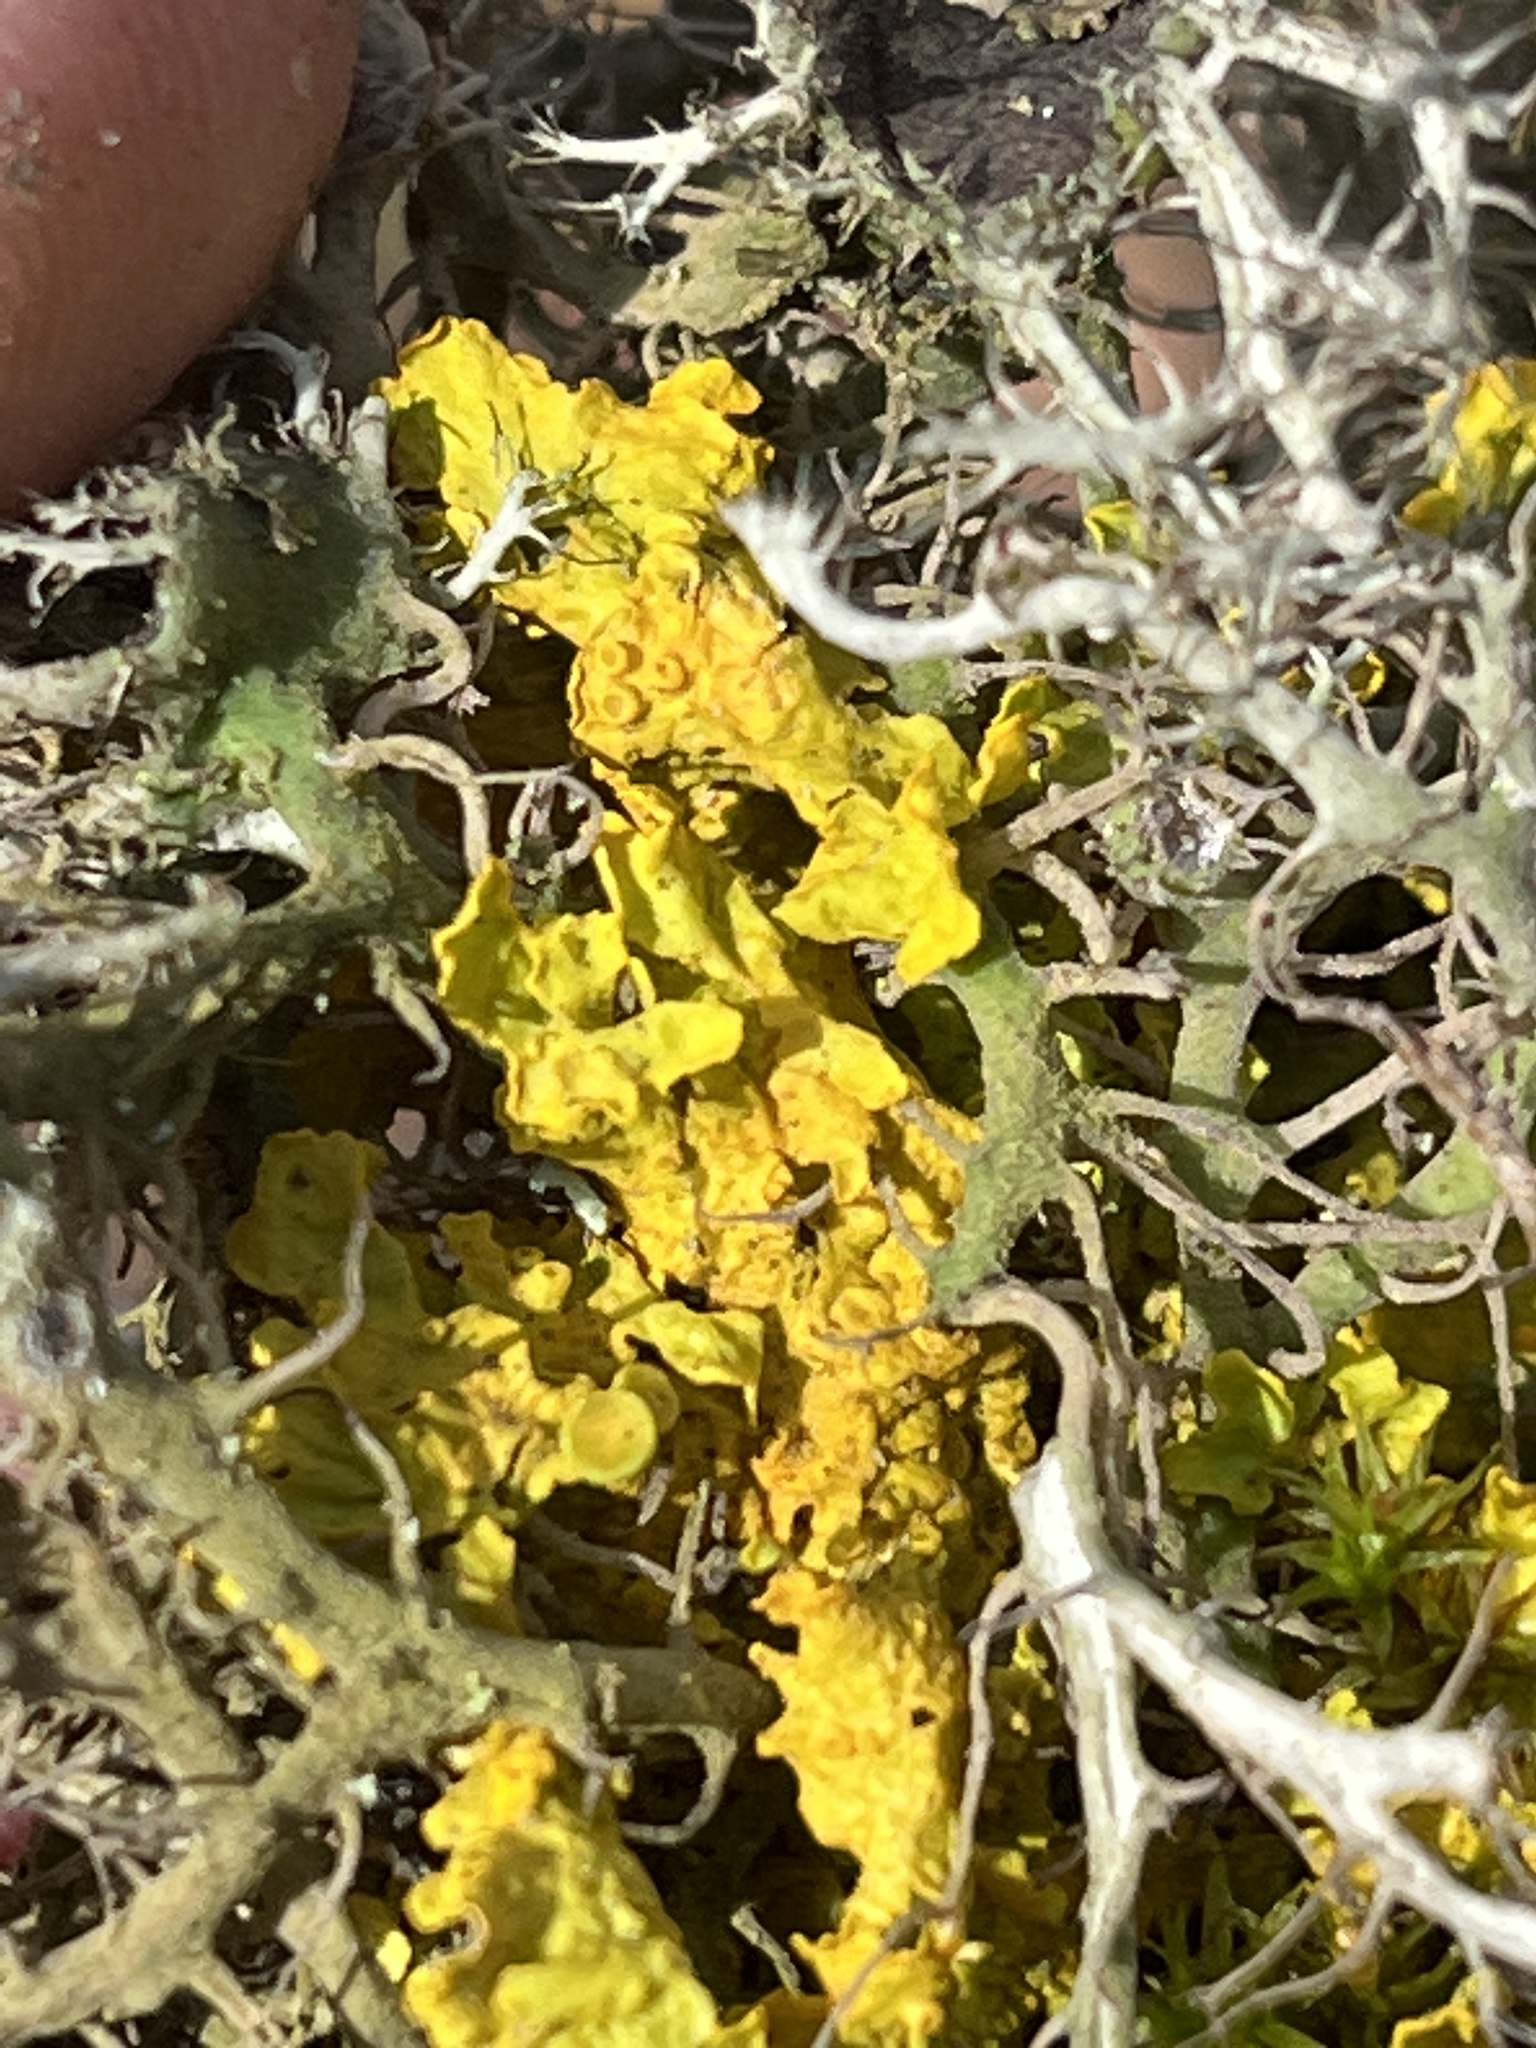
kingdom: Fungi
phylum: Ascomycota
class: Lecanoromycetes
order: Teloschistales
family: Teloschistaceae
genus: Xanthoria
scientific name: Xanthoria parietina
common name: Common orange lichen
